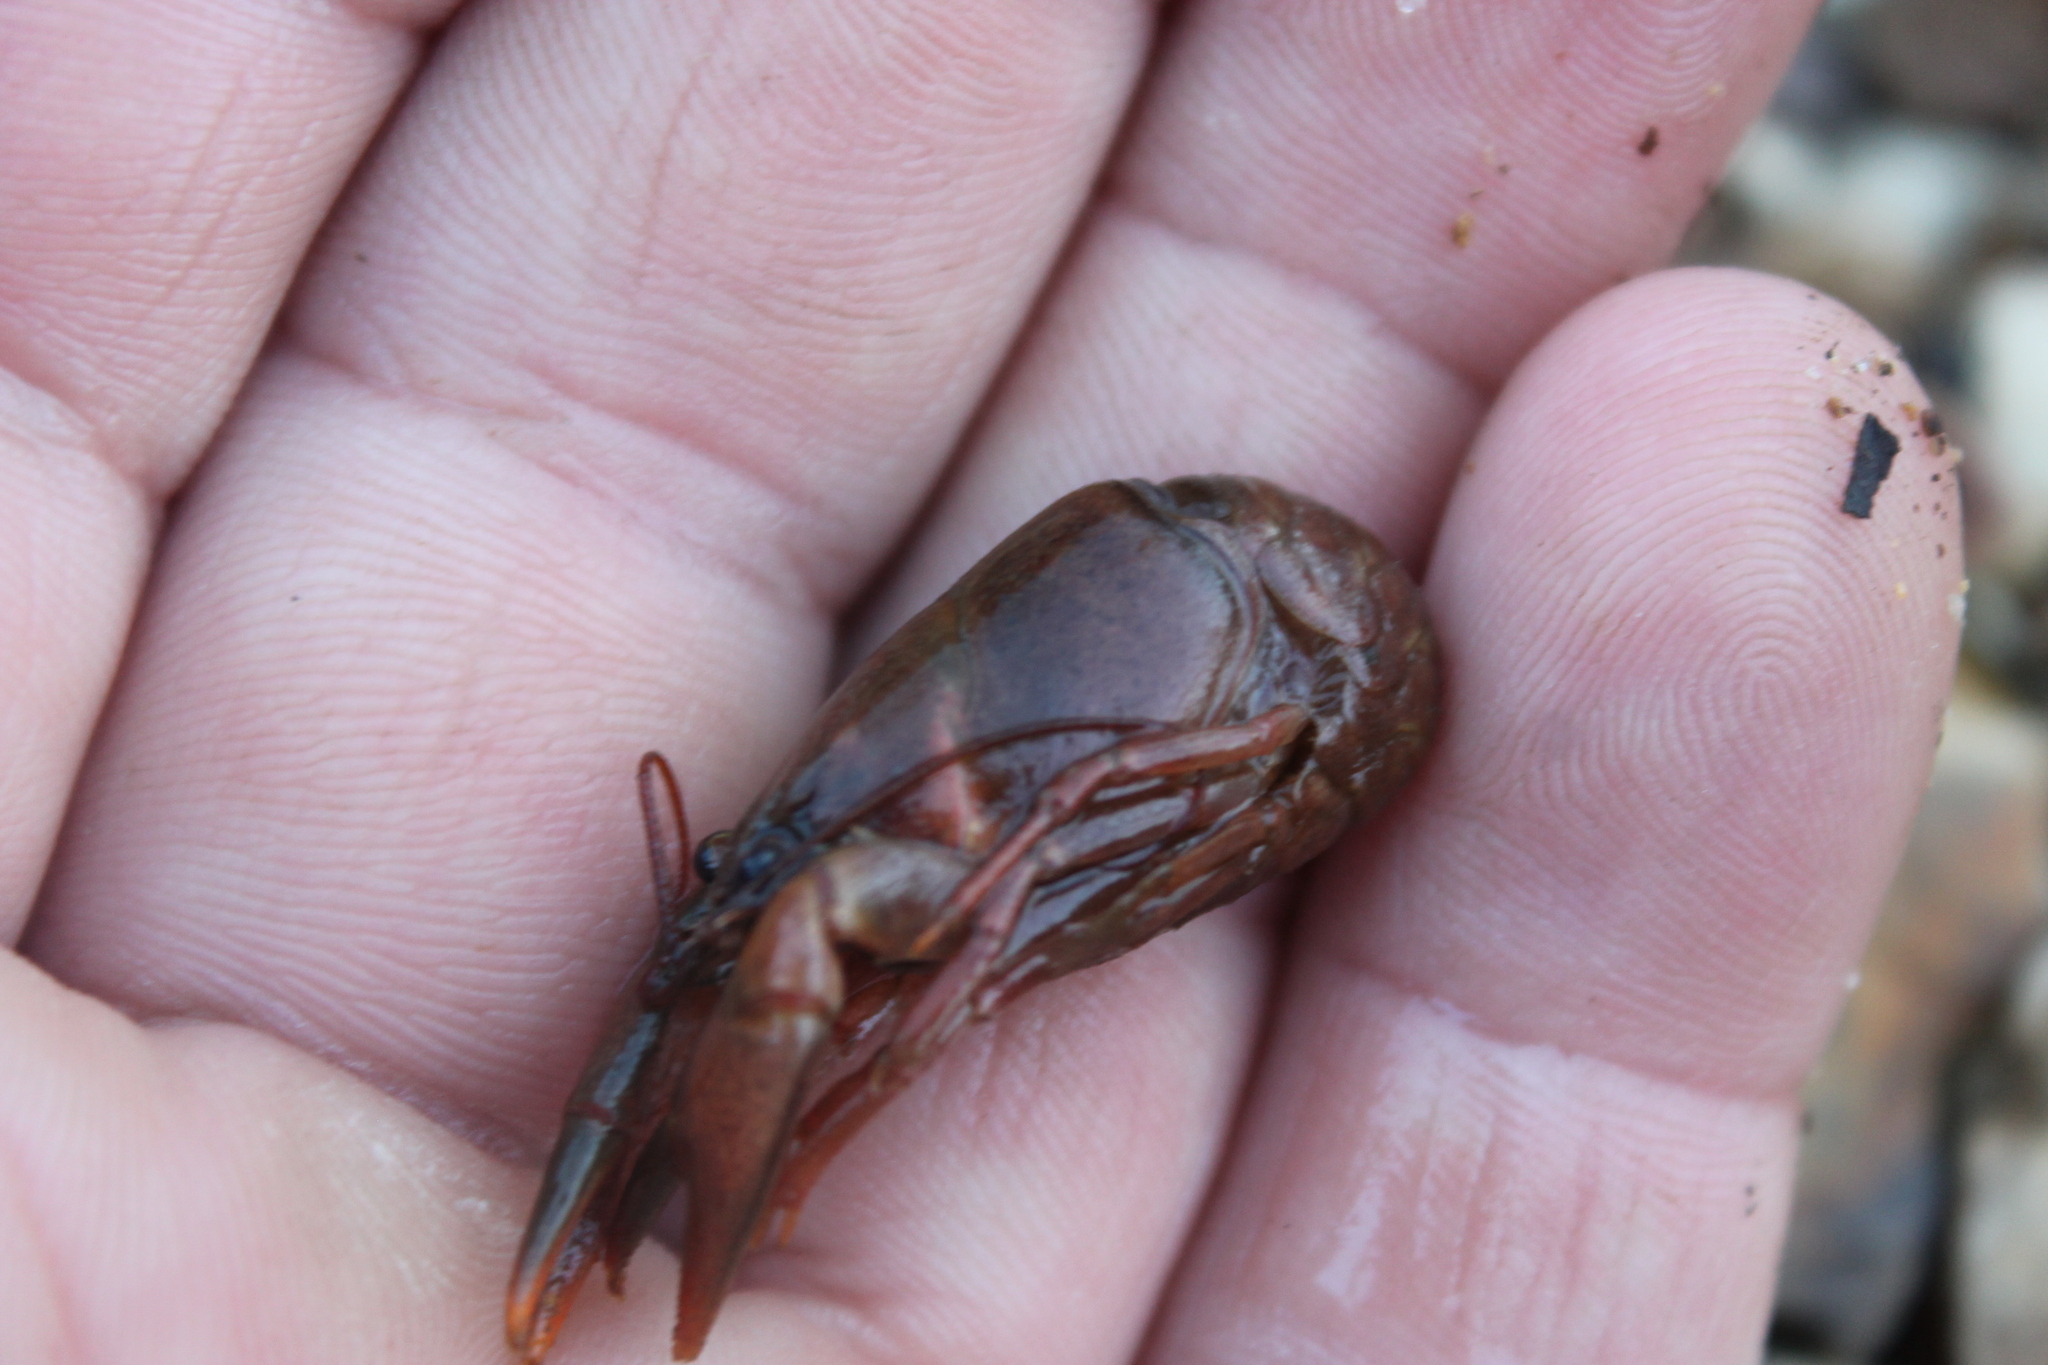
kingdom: Animalia
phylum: Arthropoda
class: Malacostraca
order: Decapoda
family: Cambaridae
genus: Faxonius
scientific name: Faxonius compressus
